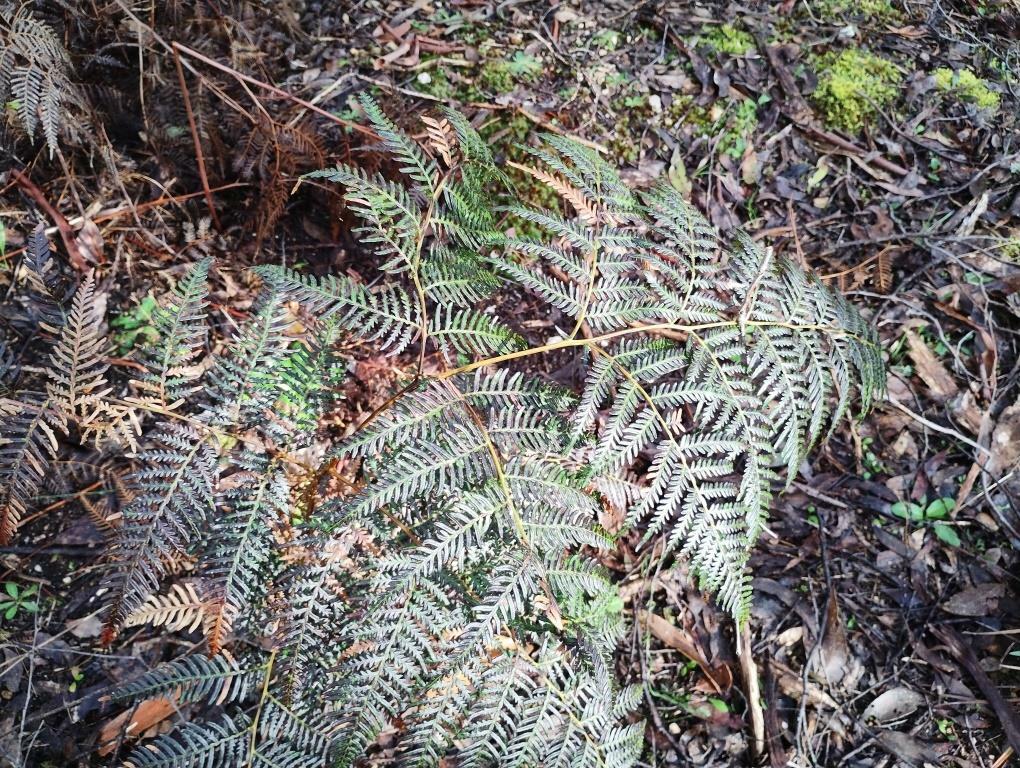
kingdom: Plantae
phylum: Tracheophyta
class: Polypodiopsida
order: Polypodiales
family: Dennstaedtiaceae
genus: Pteridium
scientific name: Pteridium esculentum
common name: Bracken fern
